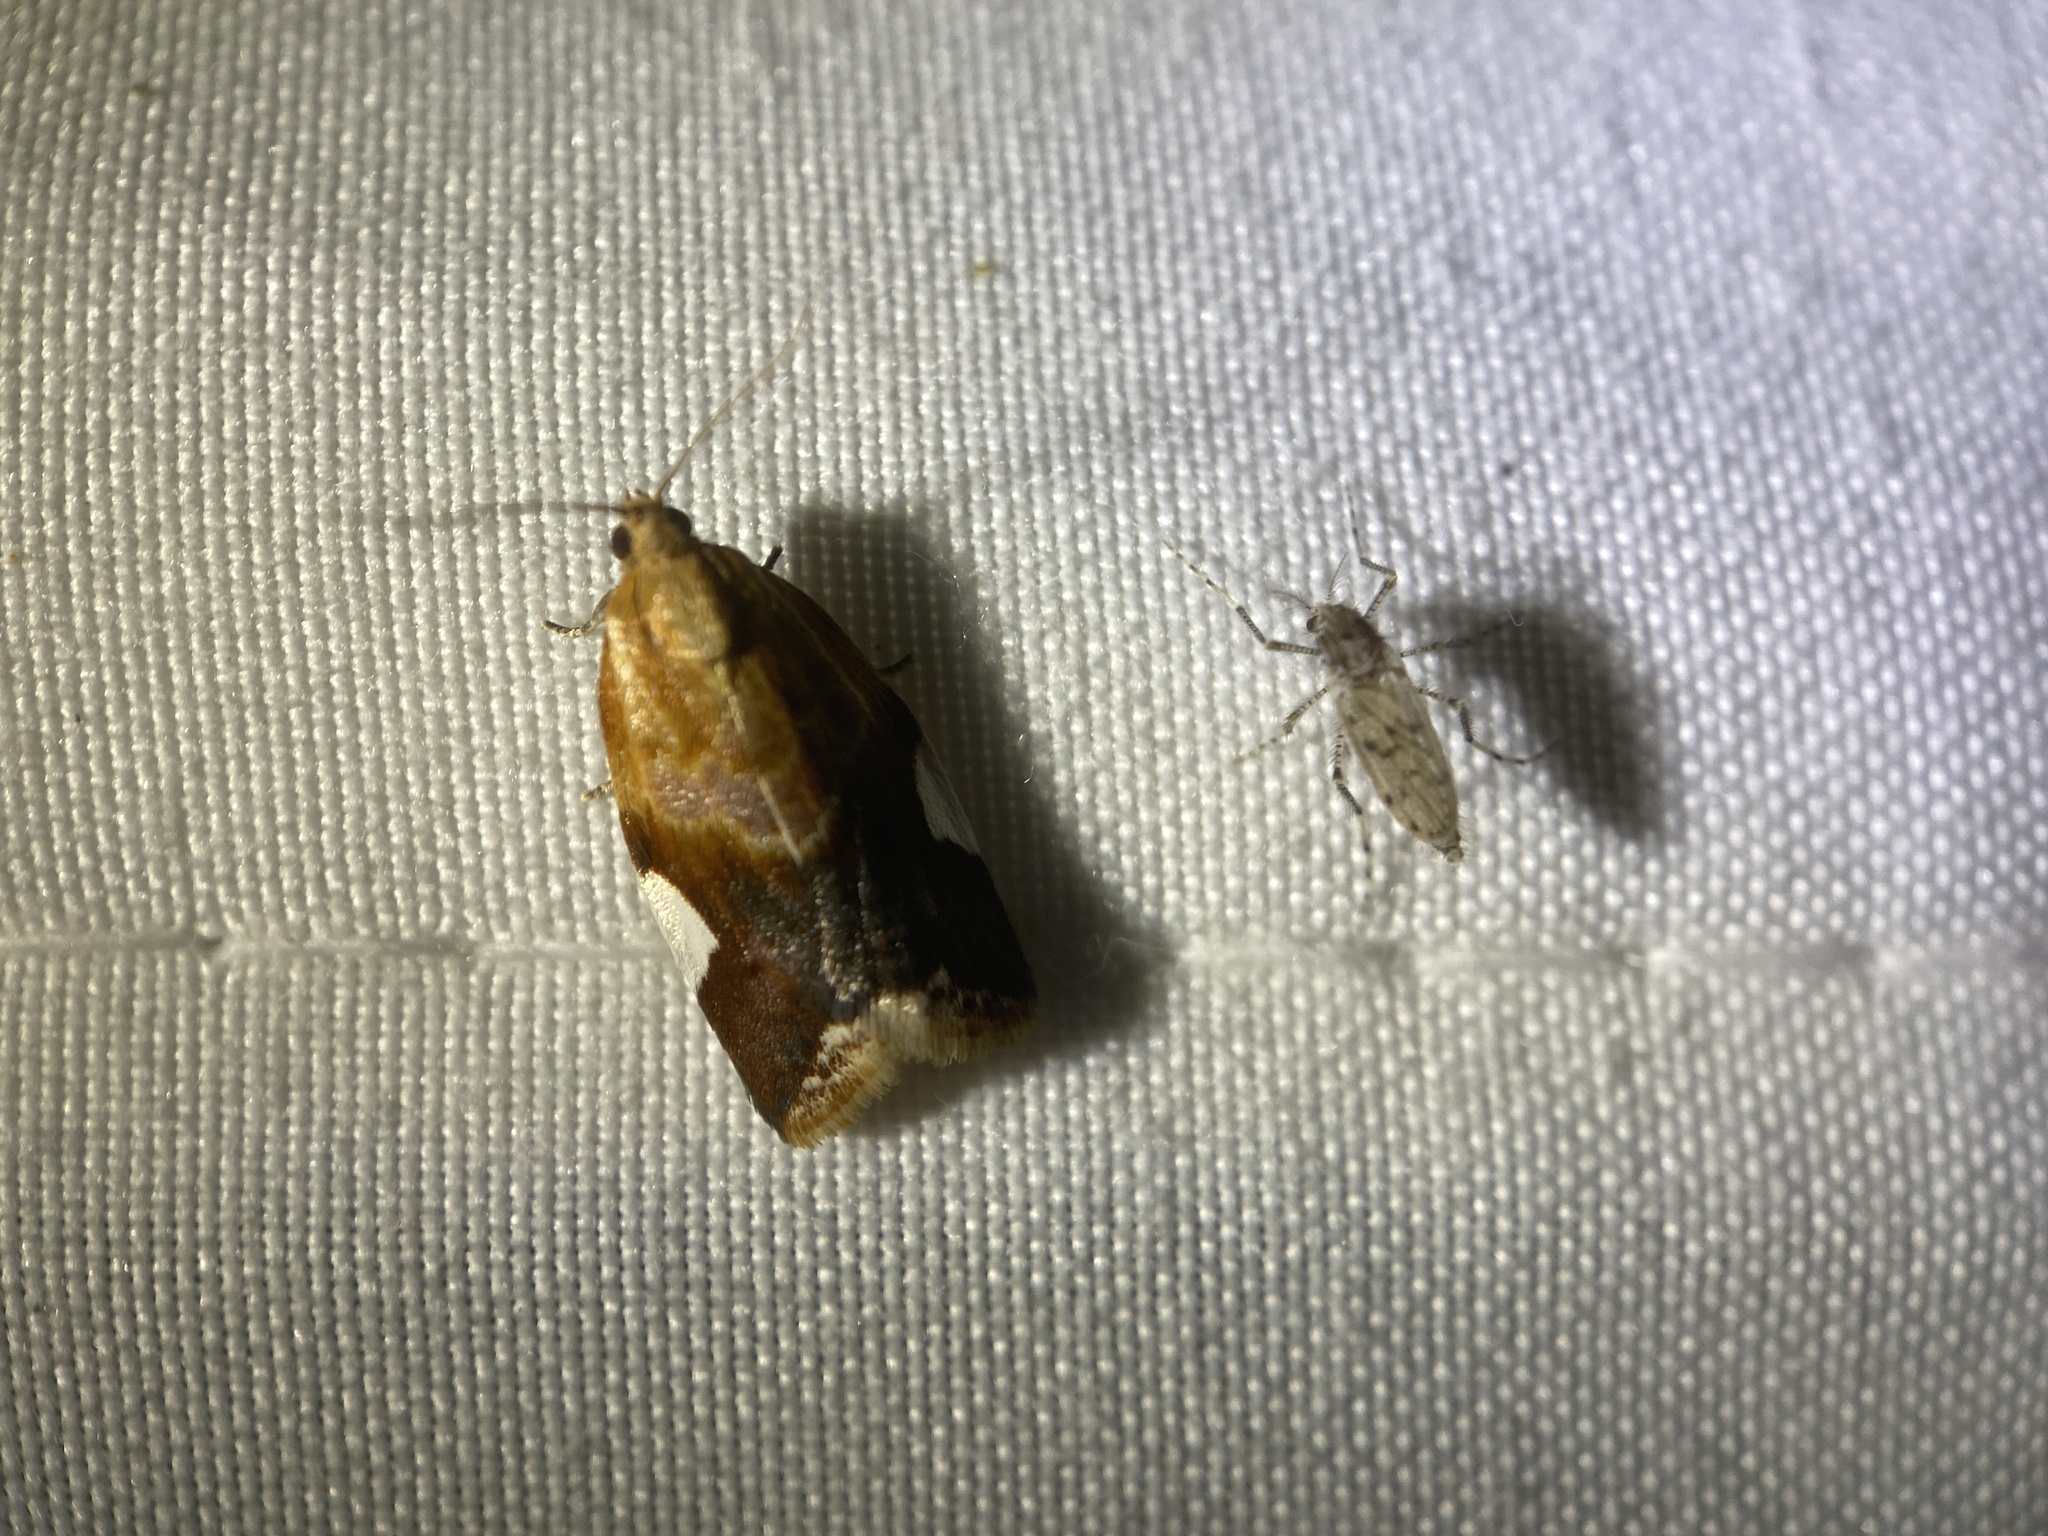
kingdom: Animalia
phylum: Arthropoda
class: Insecta
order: Lepidoptera
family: Tortricidae
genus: Clepsis
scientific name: Clepsis persicana
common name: White triangle tortrix
